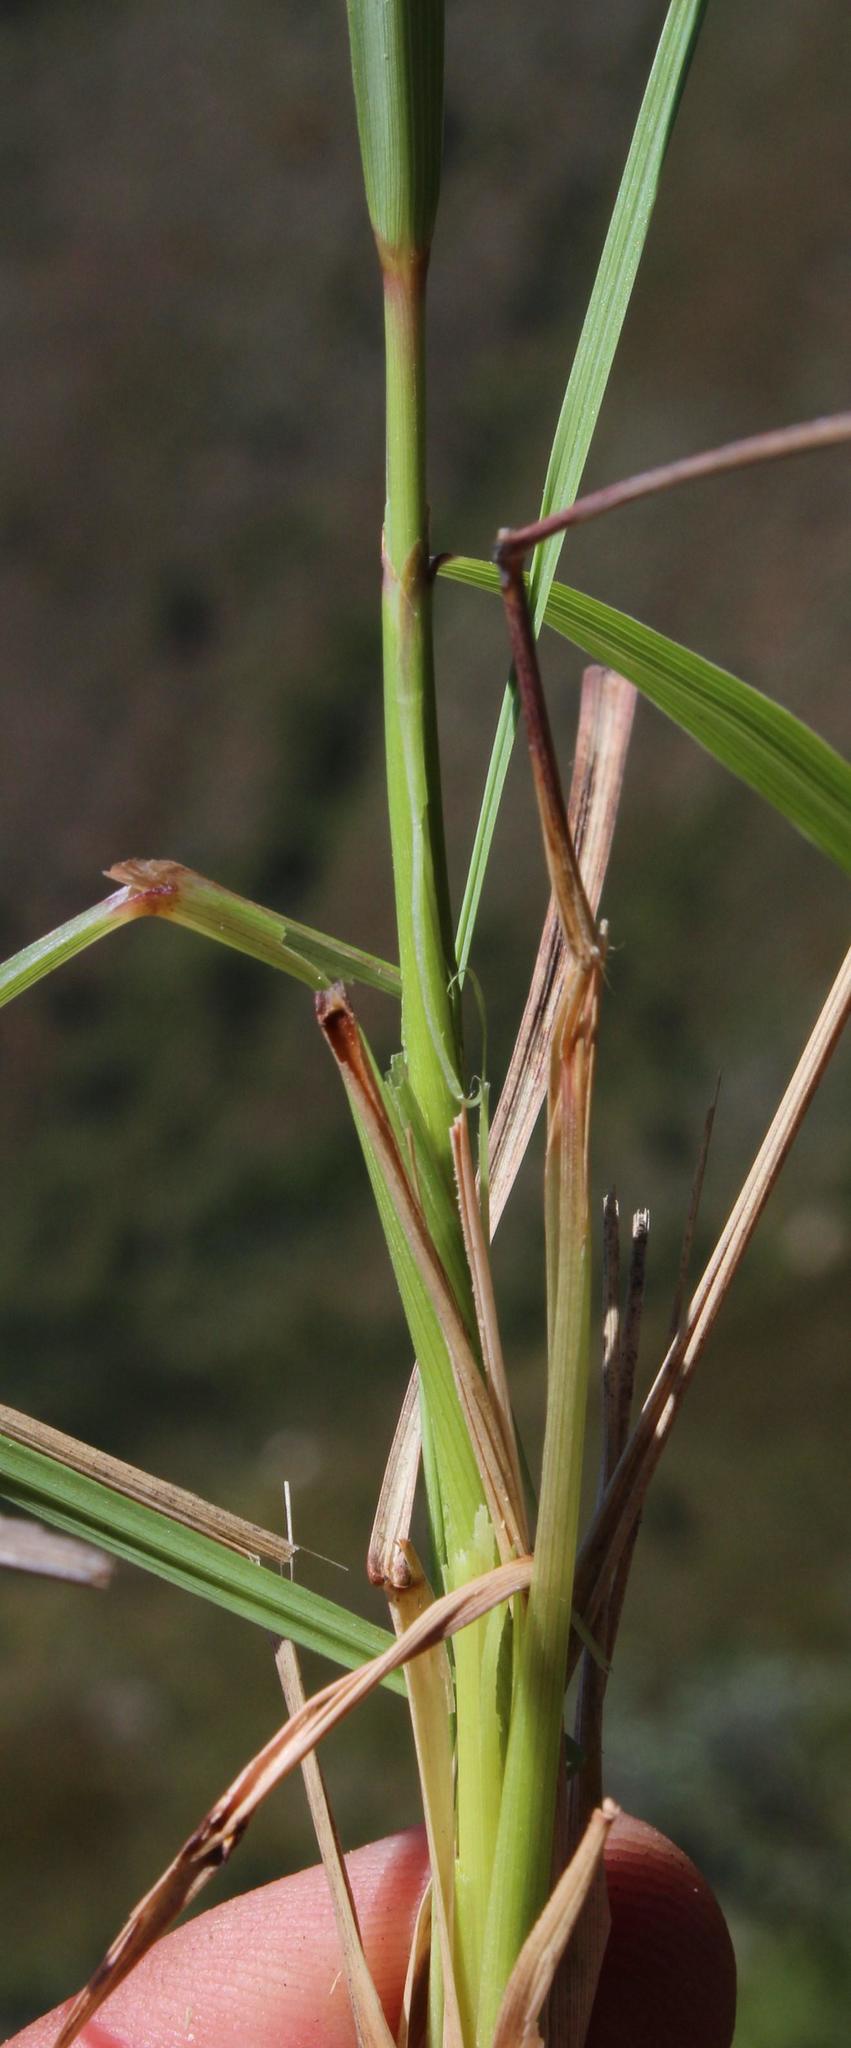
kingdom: Plantae
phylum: Tracheophyta
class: Liliopsida
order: Poales
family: Poaceae
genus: Cymbopogon
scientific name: Cymbopogon pospischilii
